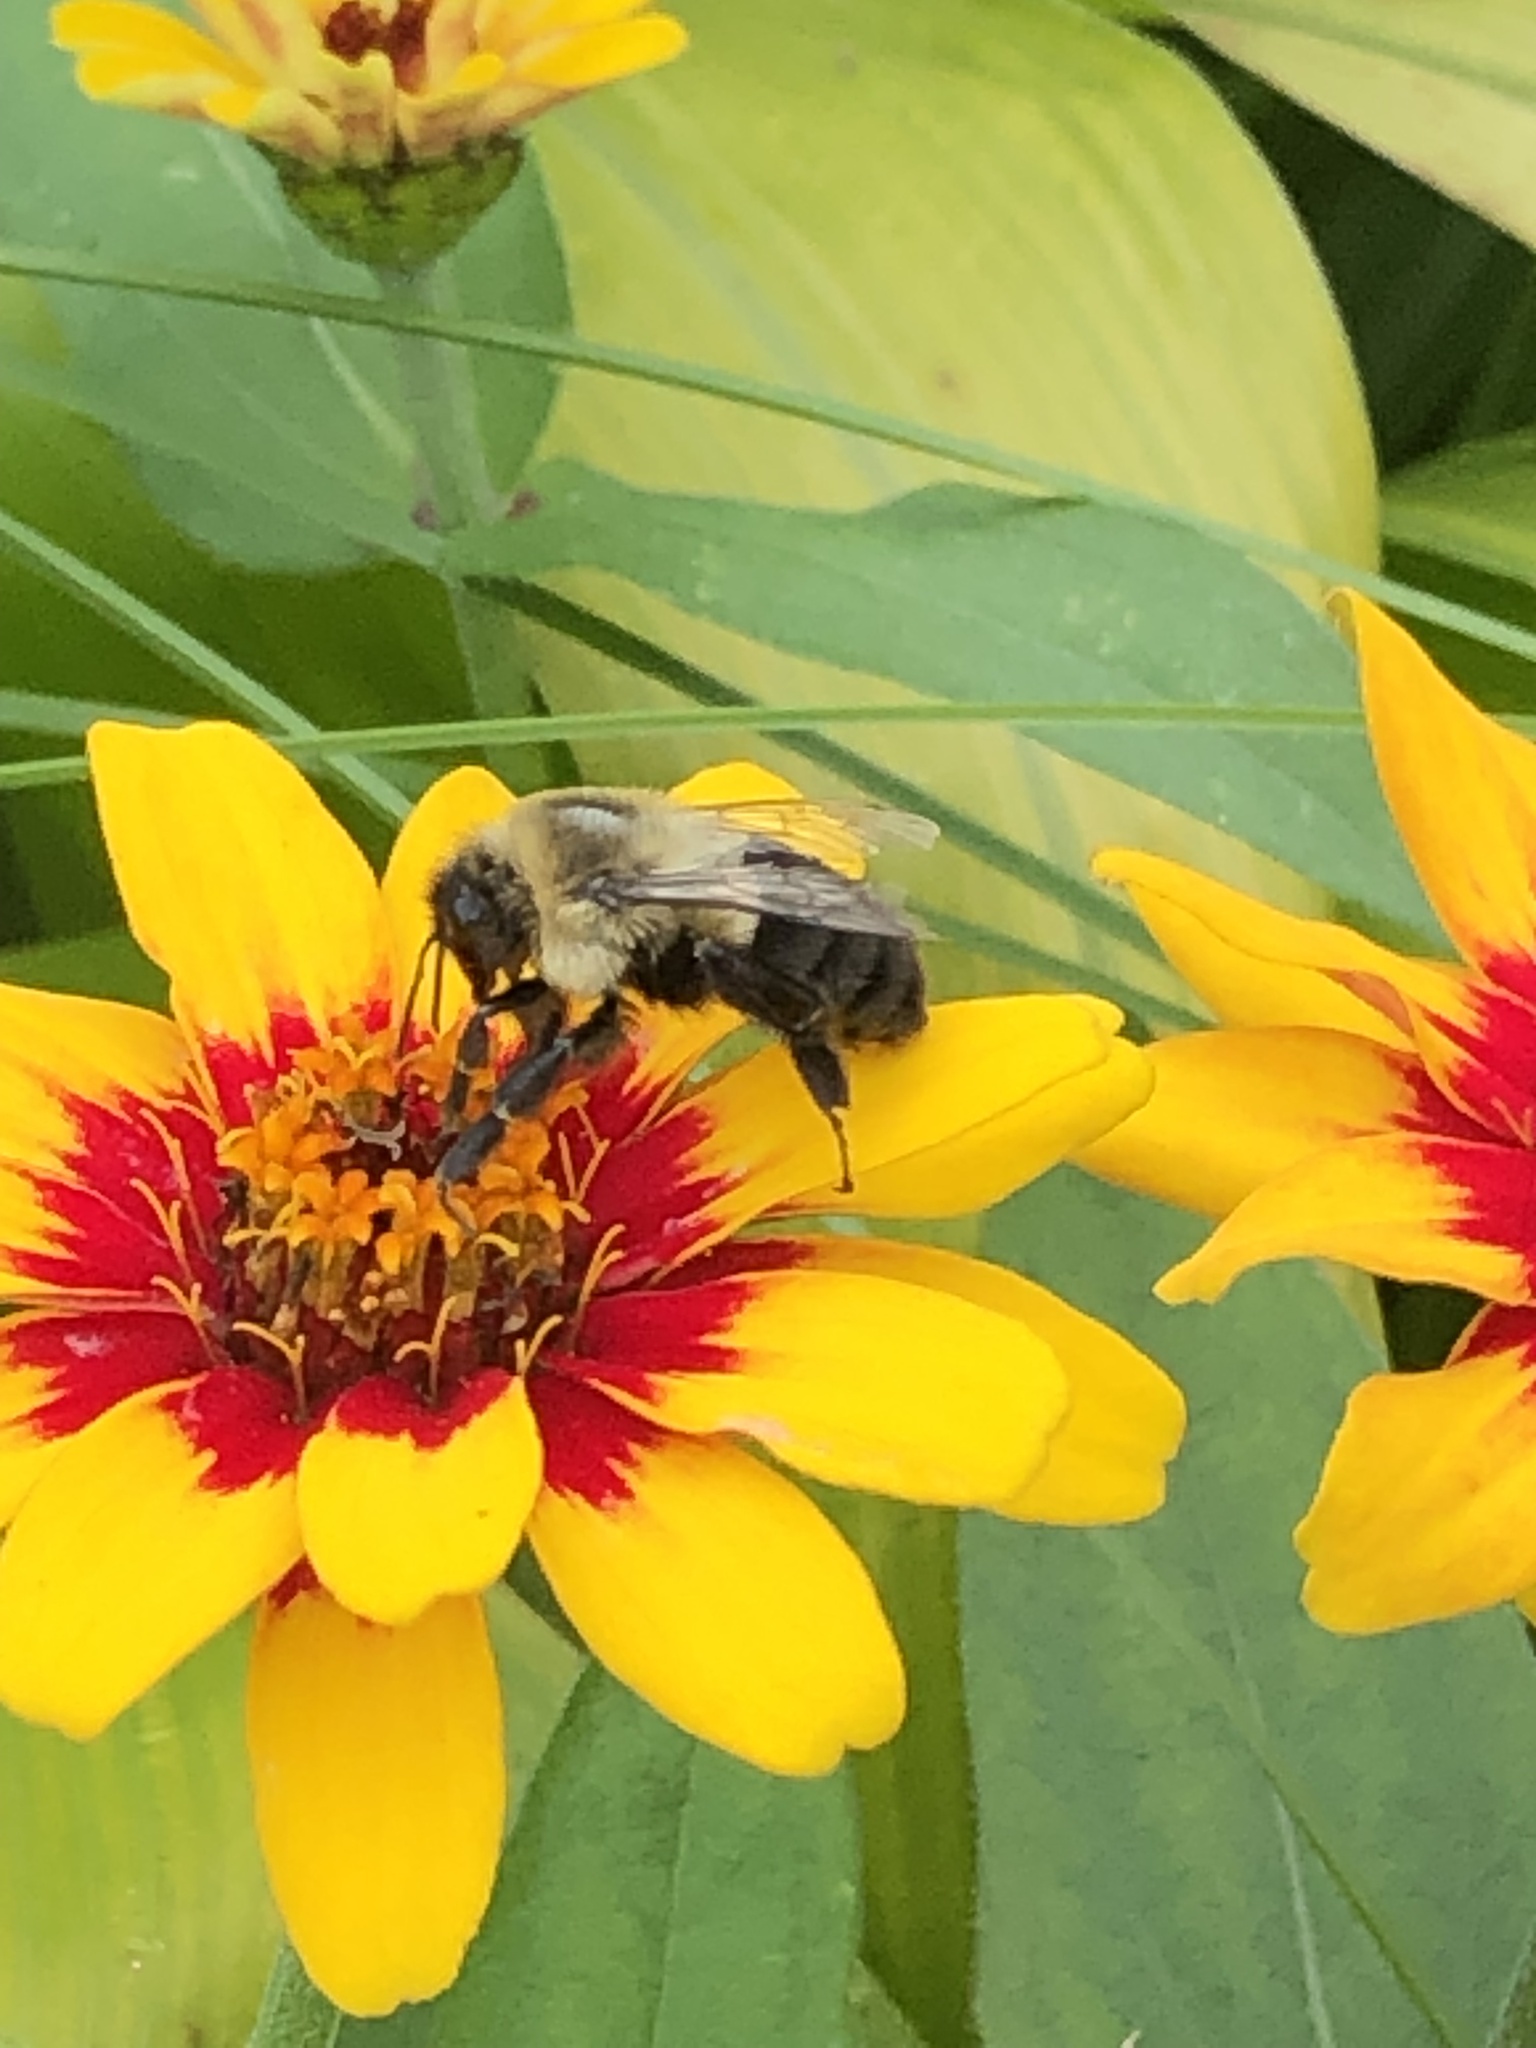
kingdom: Animalia
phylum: Arthropoda
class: Insecta
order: Hymenoptera
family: Apidae
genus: Bombus
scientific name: Bombus impatiens
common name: Common eastern bumble bee
